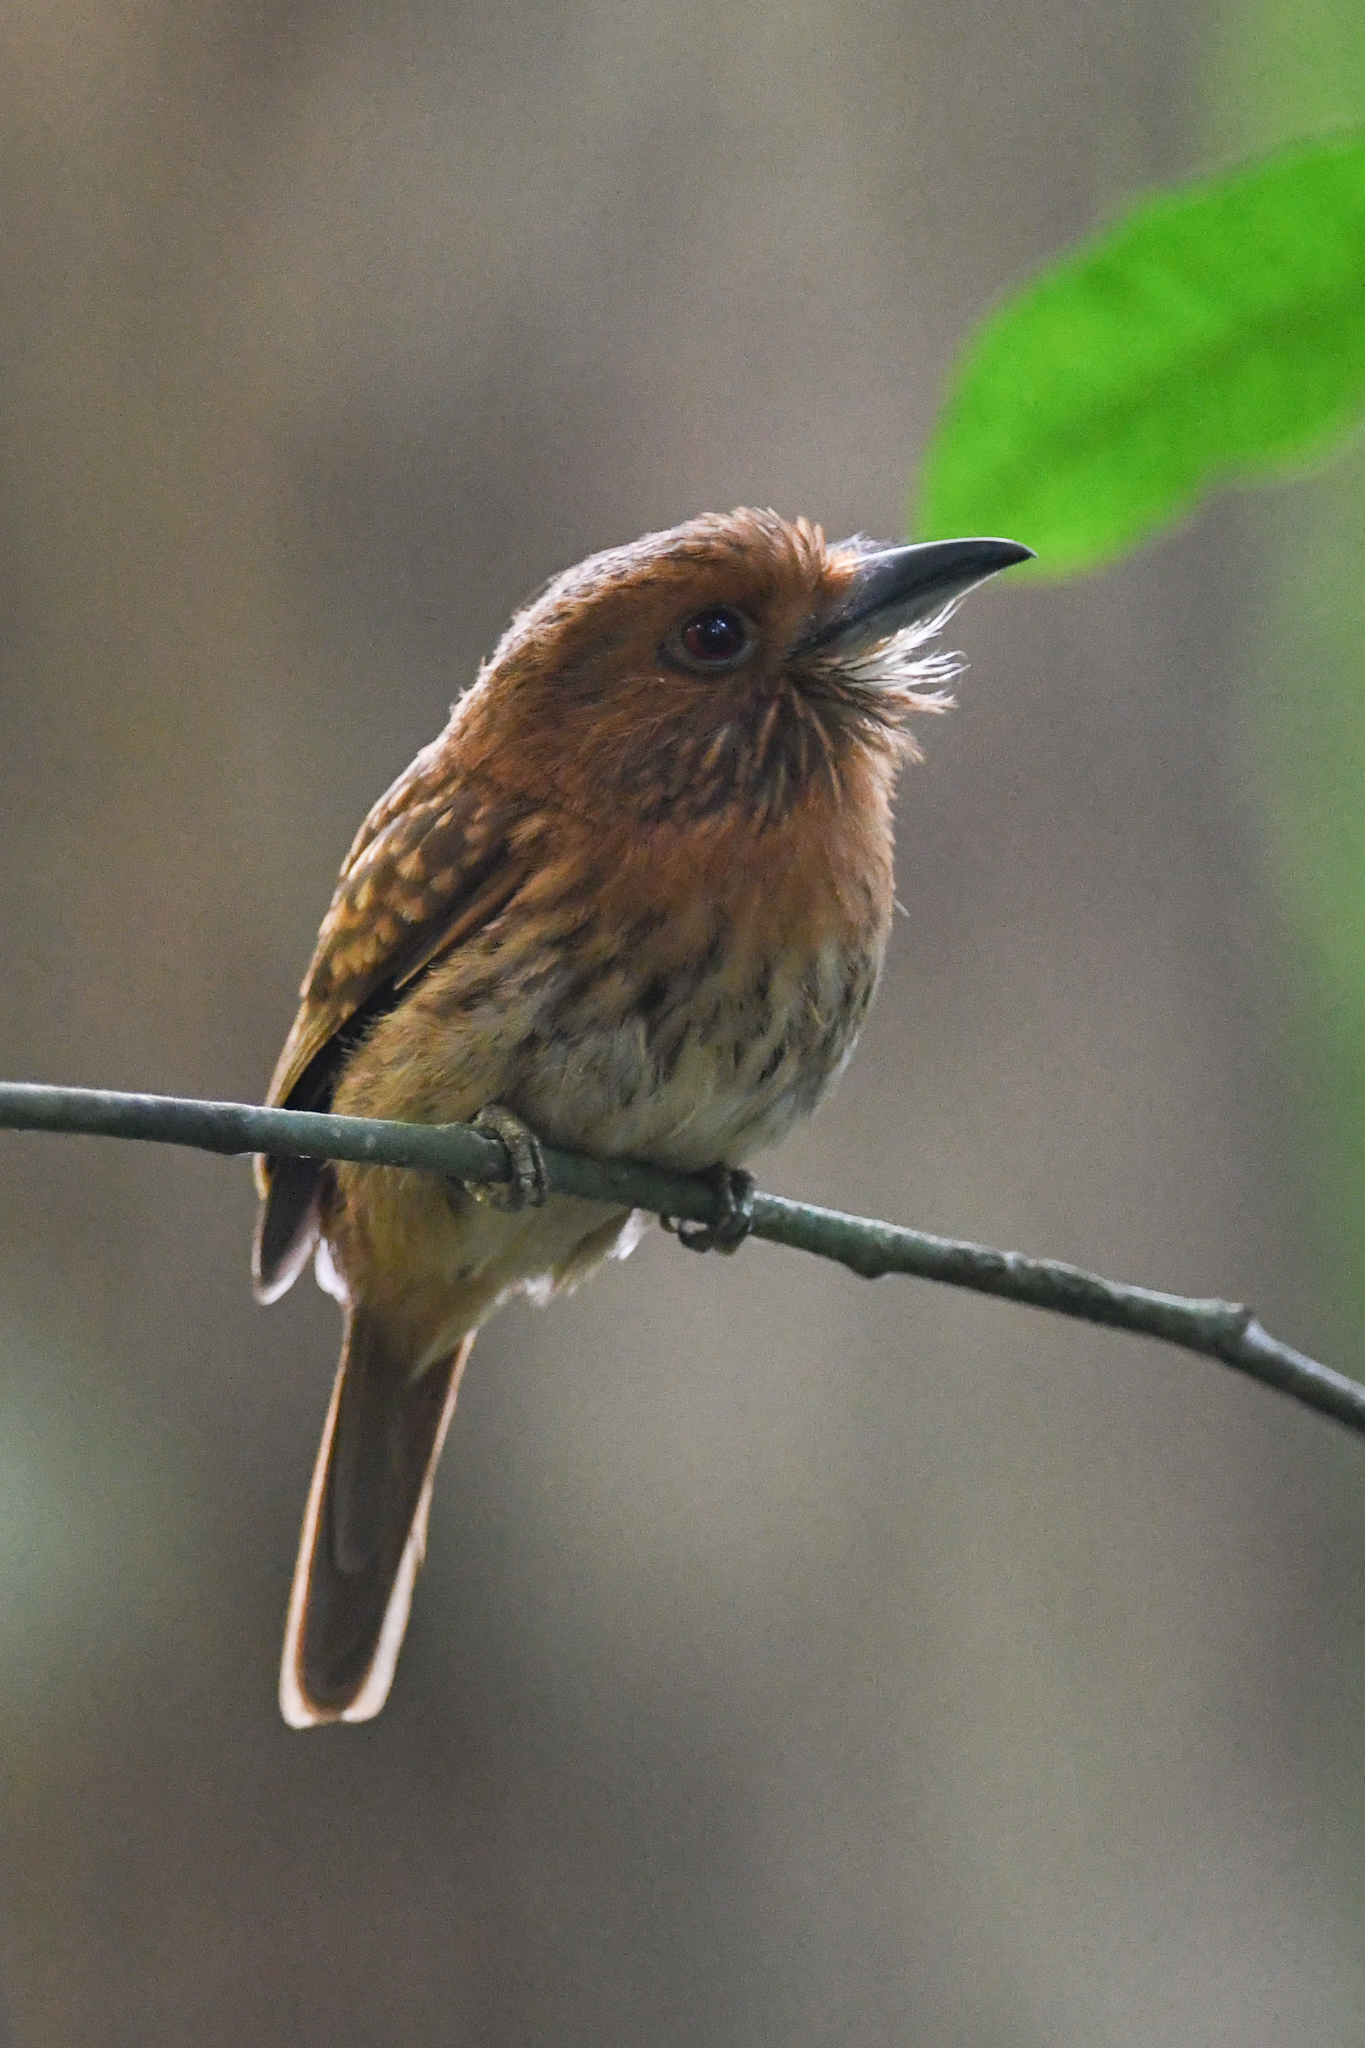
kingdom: Animalia
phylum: Chordata
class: Aves
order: Piciformes
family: Bucconidae
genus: Malacoptila
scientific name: Malacoptila panamensis
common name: White-whiskered puffbird
